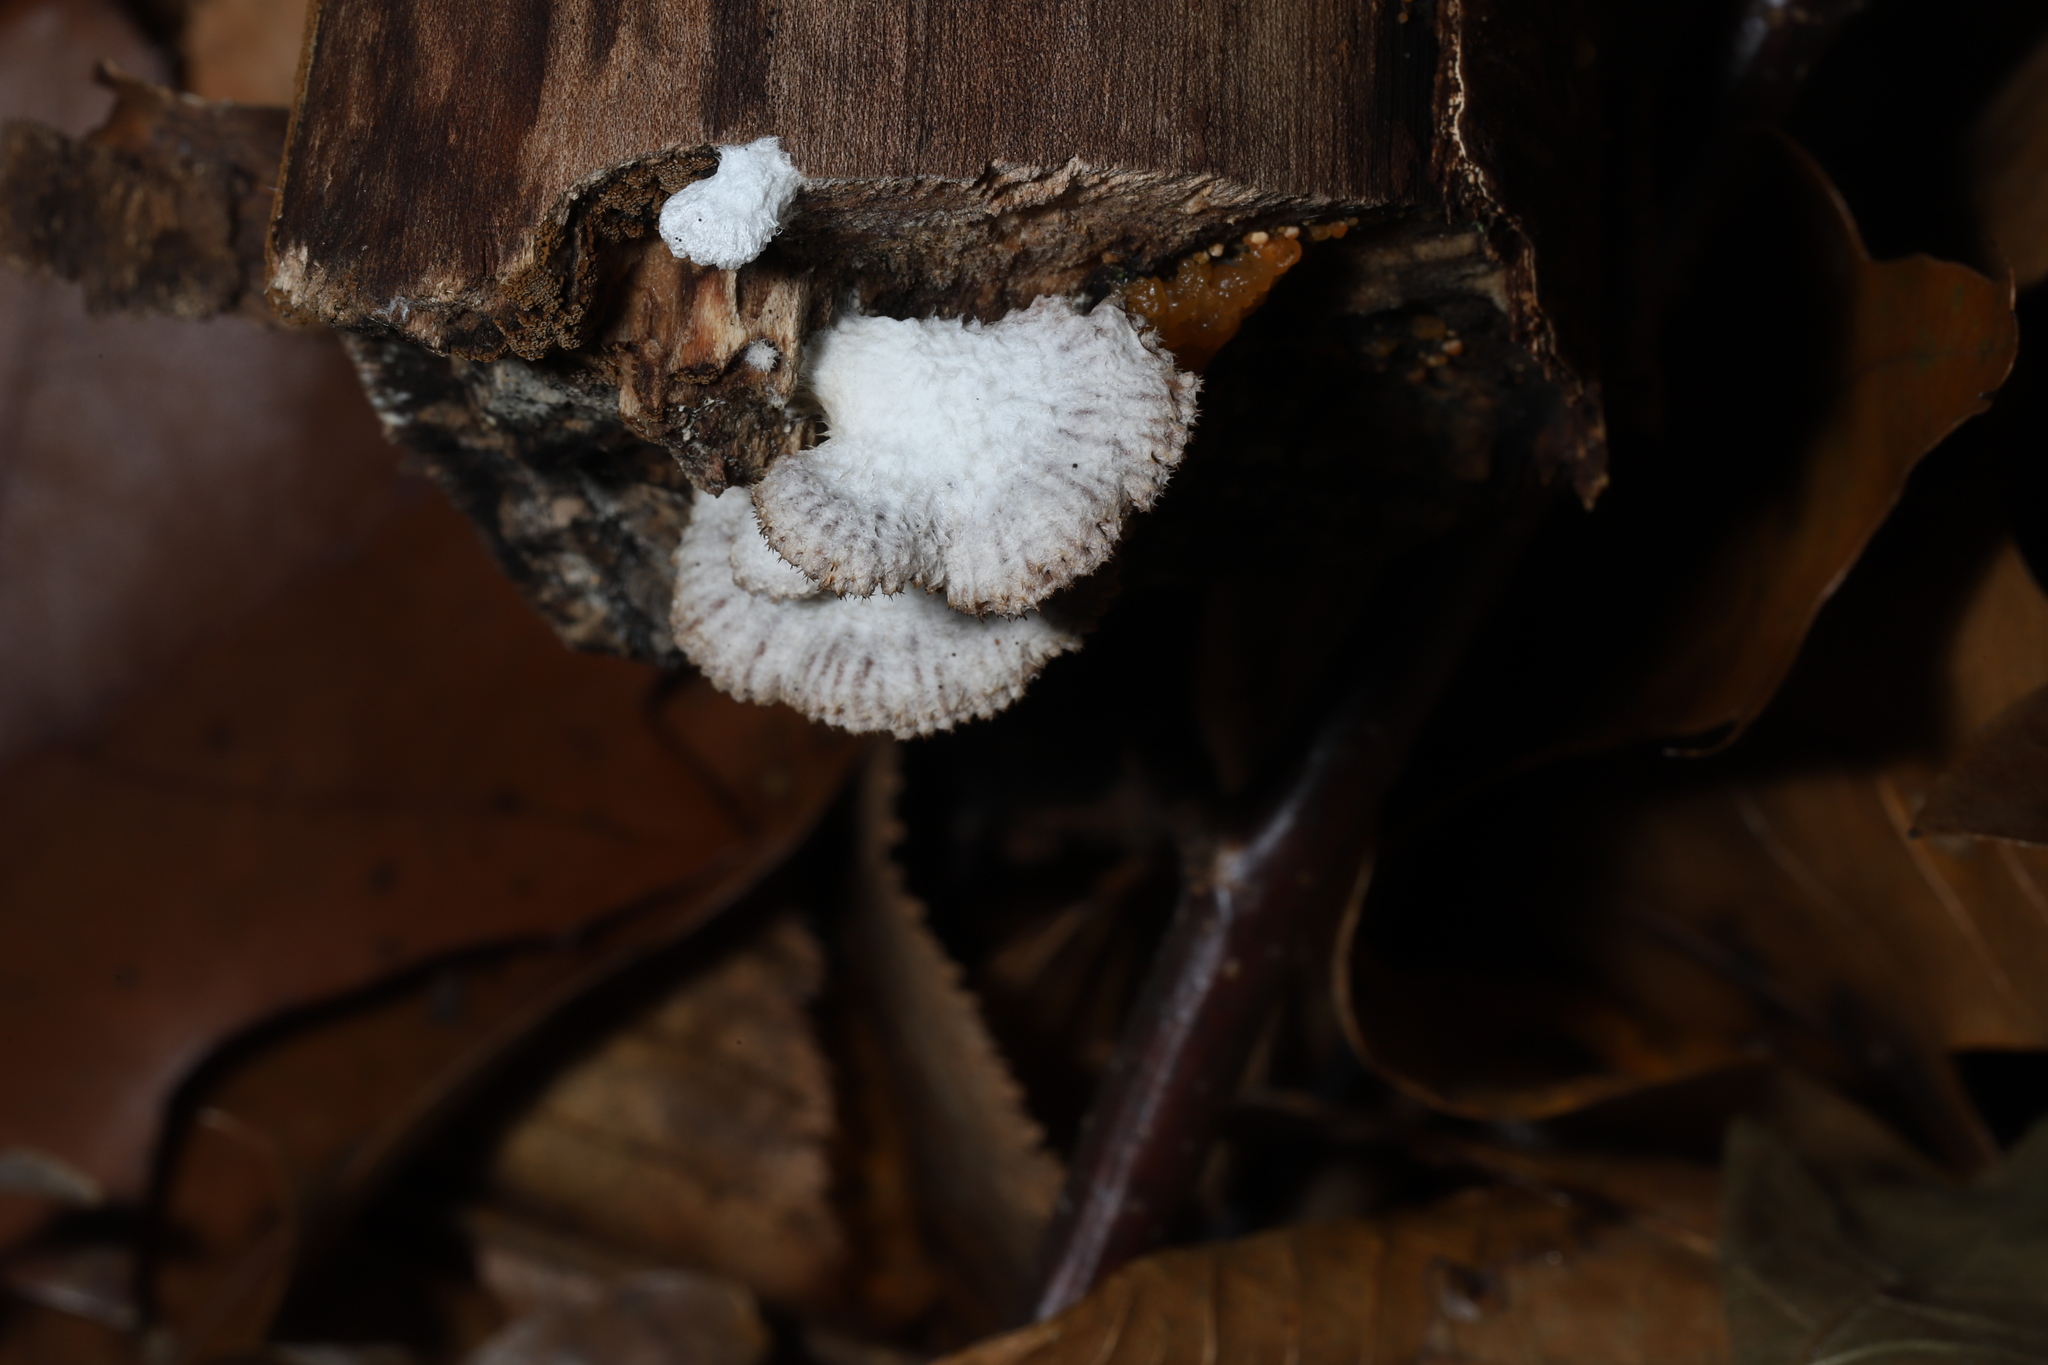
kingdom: Fungi
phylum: Basidiomycota
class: Agaricomycetes
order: Agaricales
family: Schizophyllaceae
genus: Schizophyllum
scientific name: Schizophyllum commune
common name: Common porecrust
